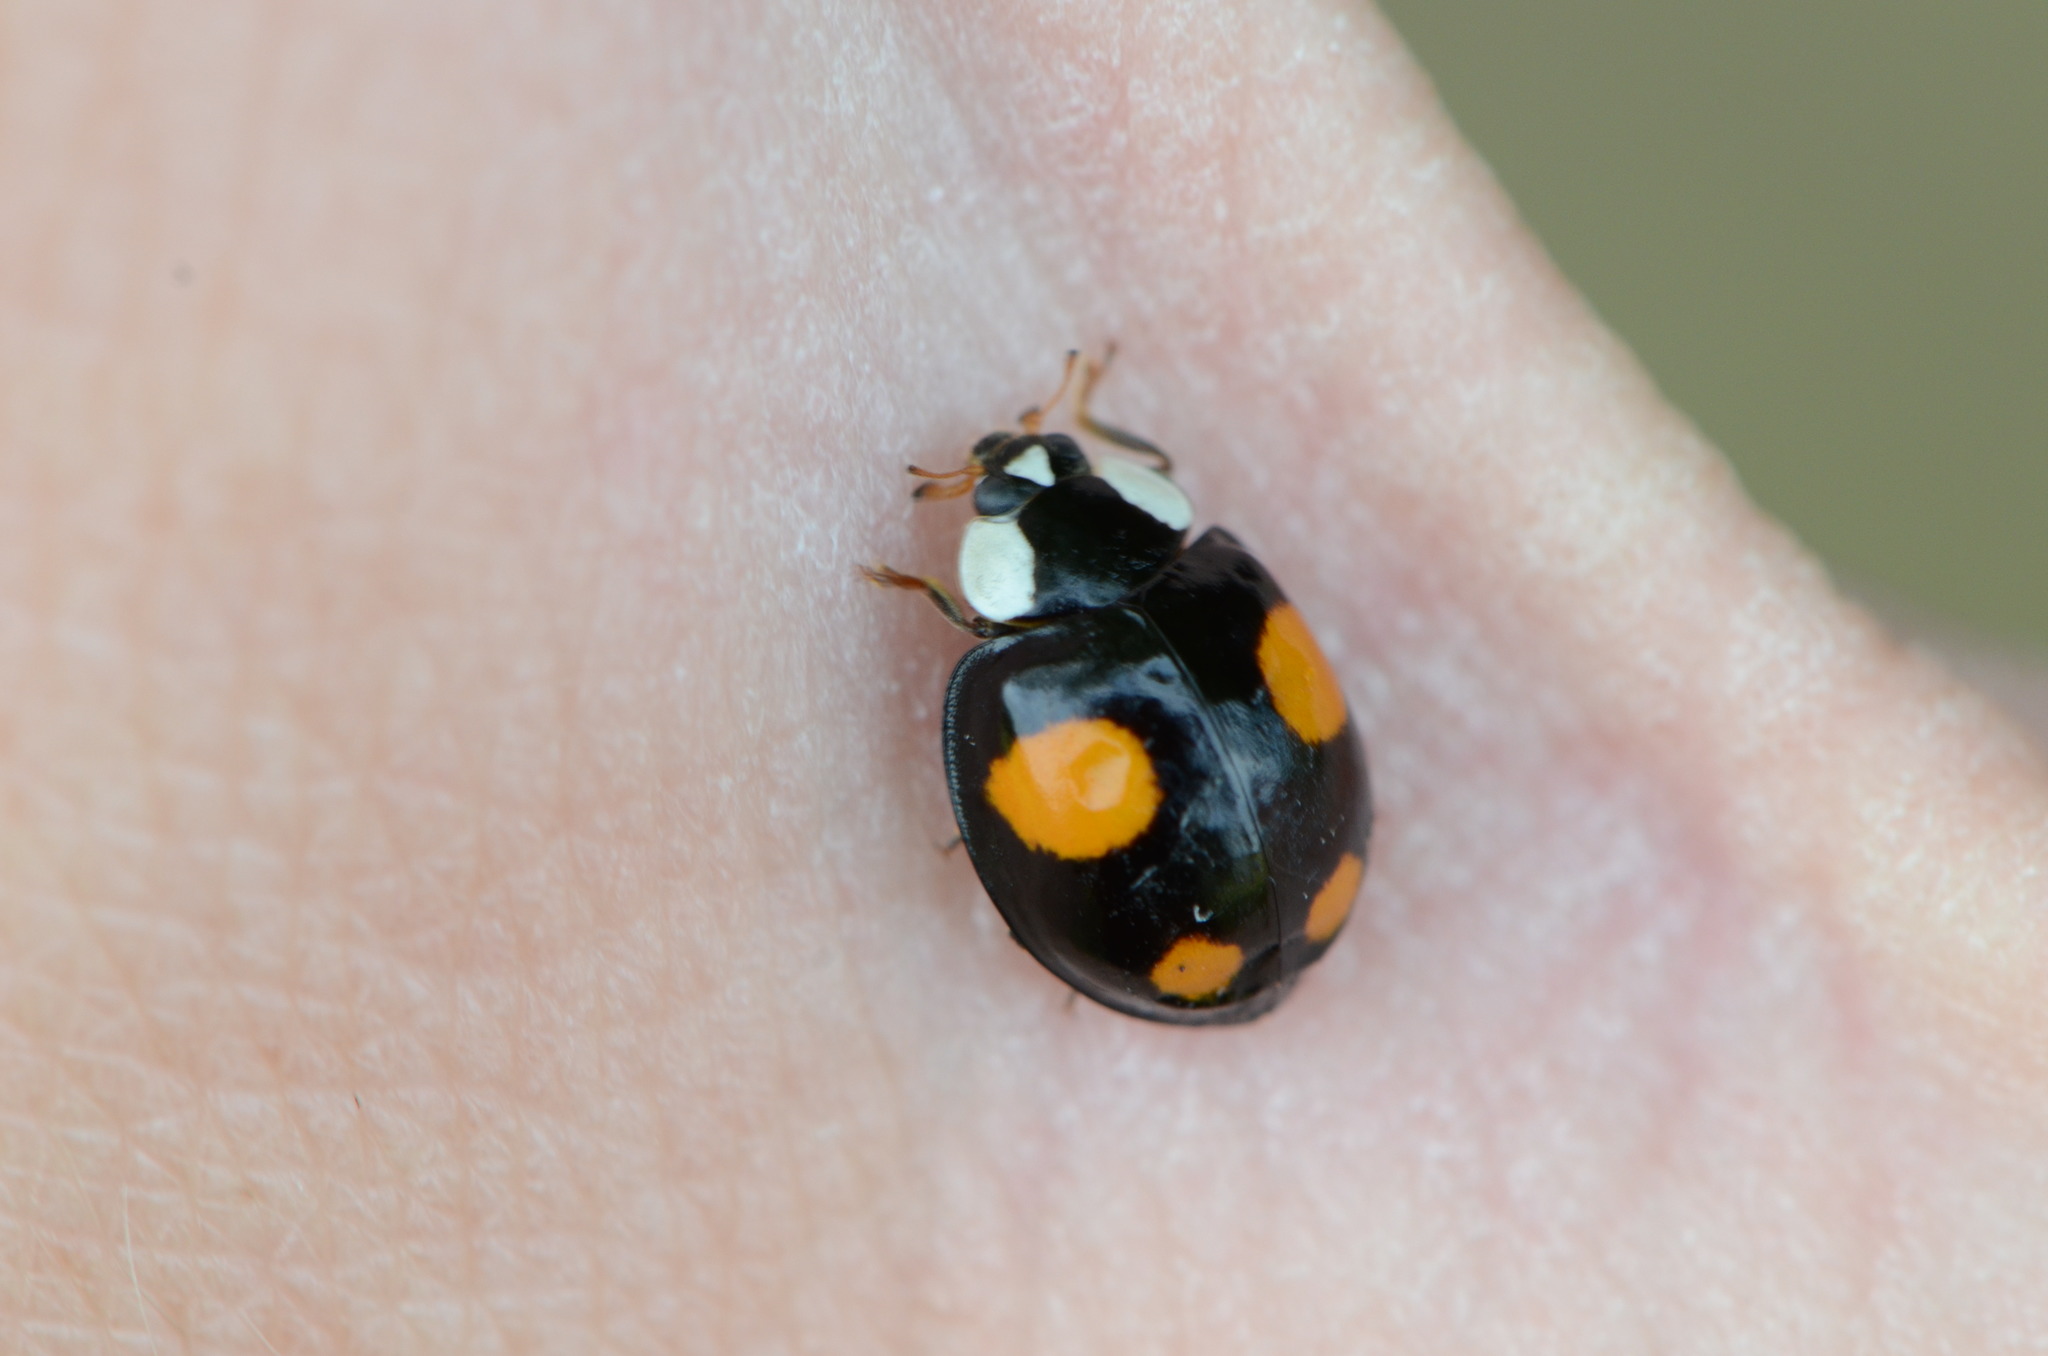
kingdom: Animalia
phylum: Arthropoda
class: Insecta
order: Coleoptera
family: Coccinellidae
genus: Harmonia
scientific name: Harmonia axyridis
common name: Harlequin ladybird
